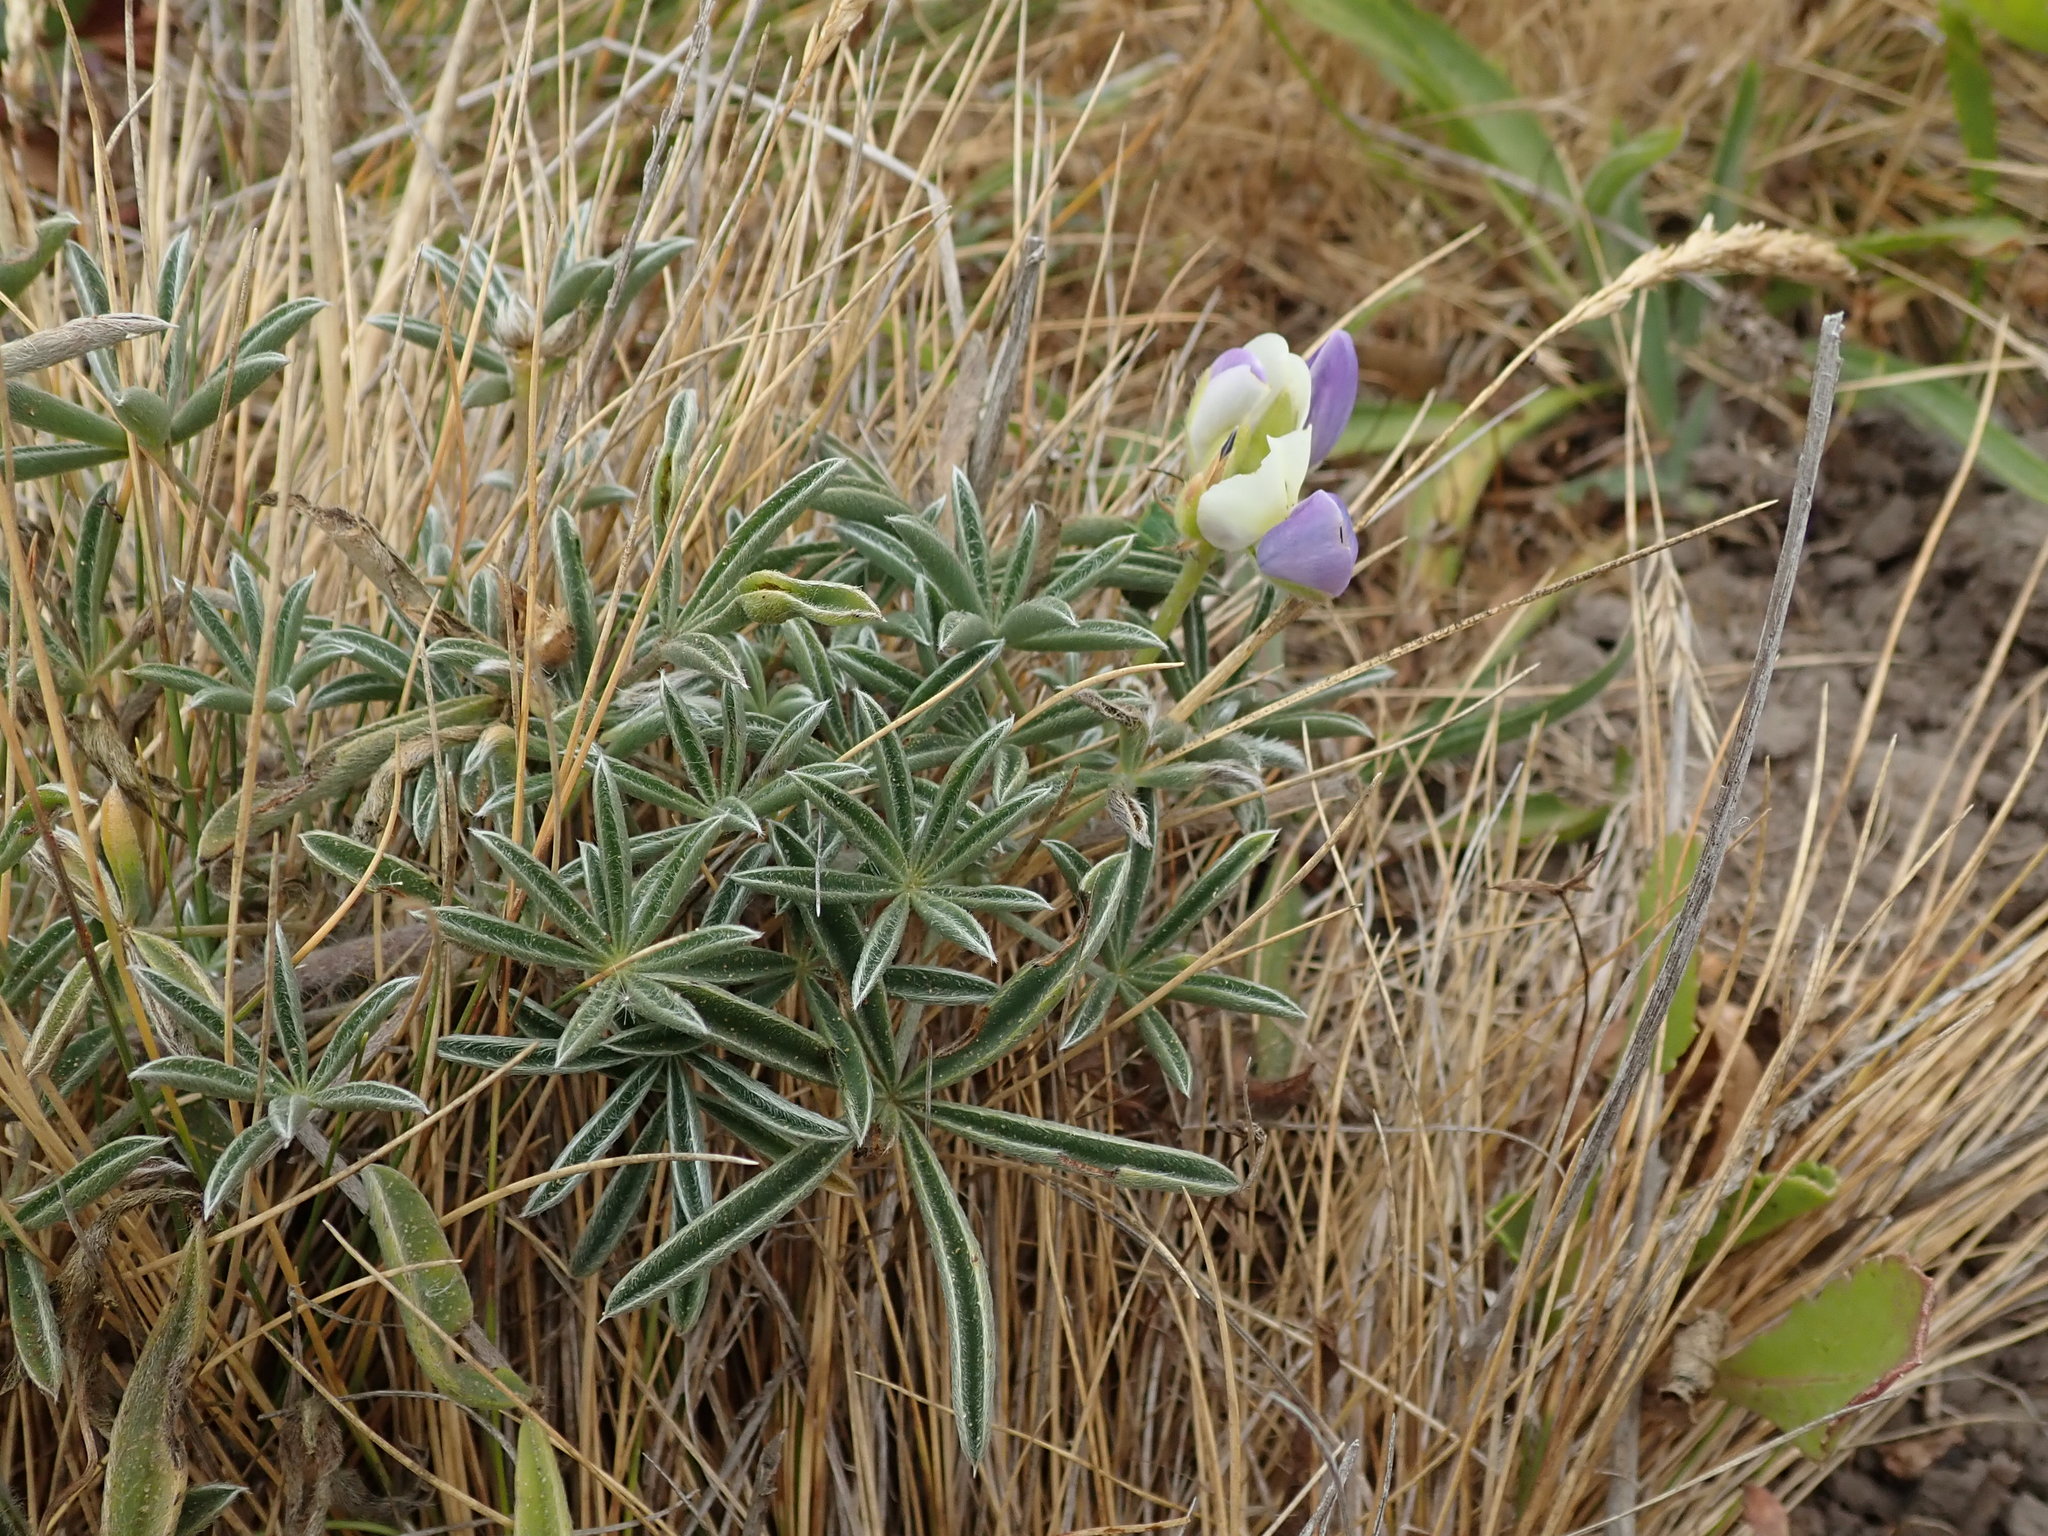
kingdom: Plantae
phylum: Tracheophyta
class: Magnoliopsida
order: Fabales
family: Fabaceae
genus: Lupinus
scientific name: Lupinus variicolor
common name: Lindley's varied lupine
